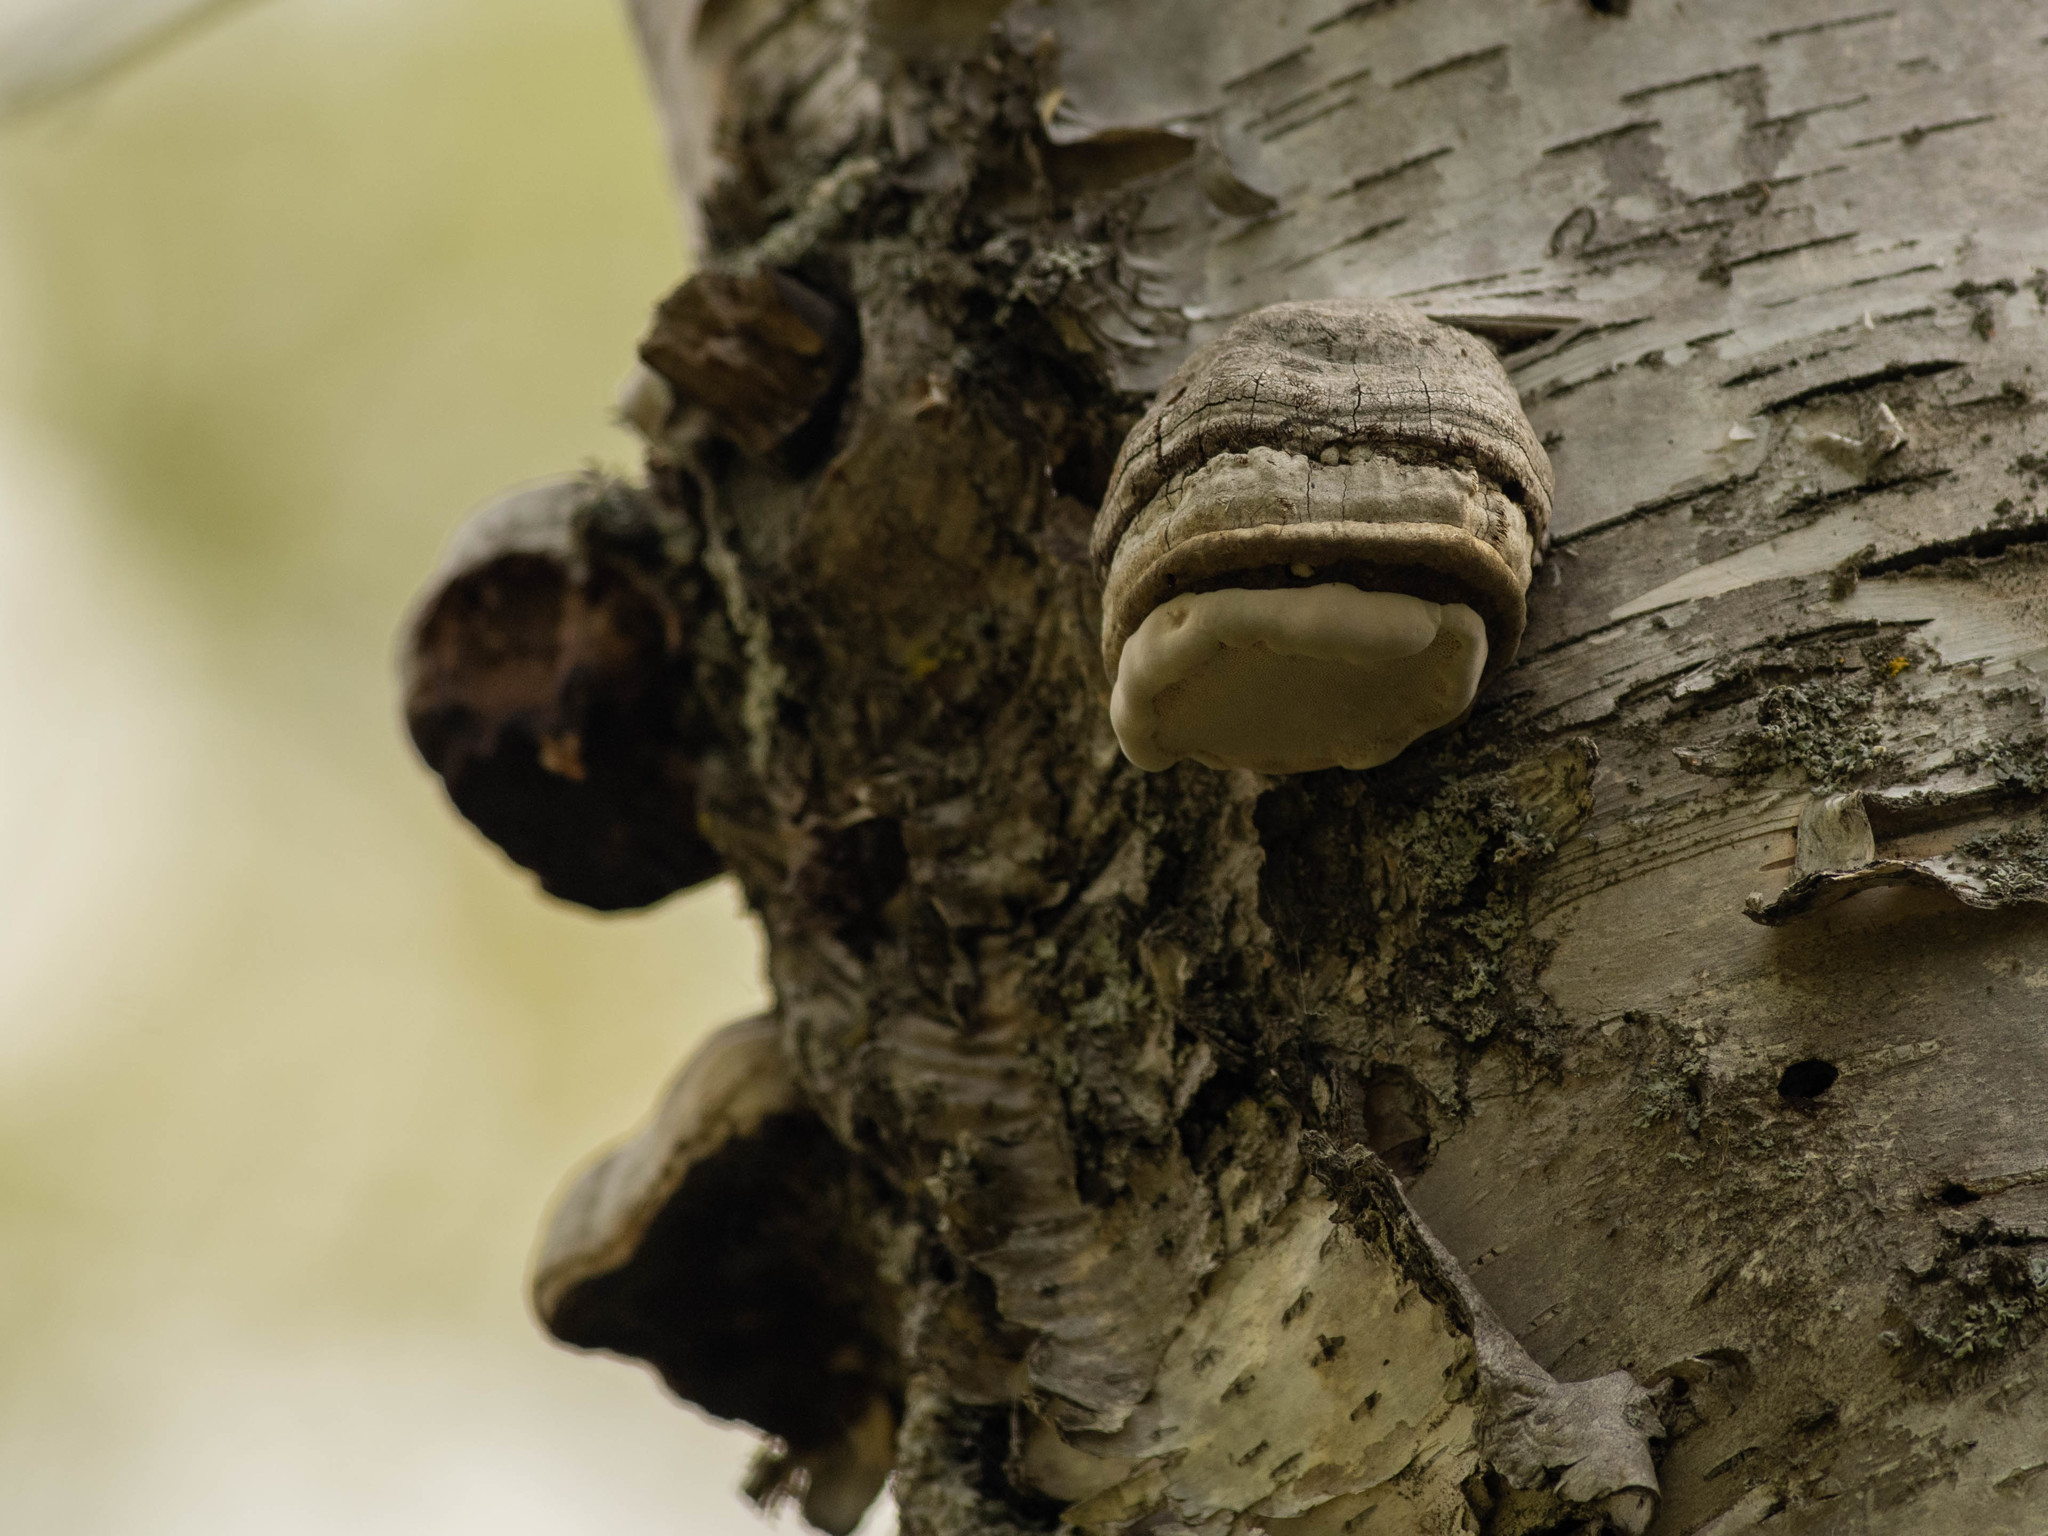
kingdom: Fungi
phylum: Basidiomycota
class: Agaricomycetes
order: Polyporales
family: Polyporaceae
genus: Fomes
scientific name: Fomes fomentarius
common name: Hoof fungus
